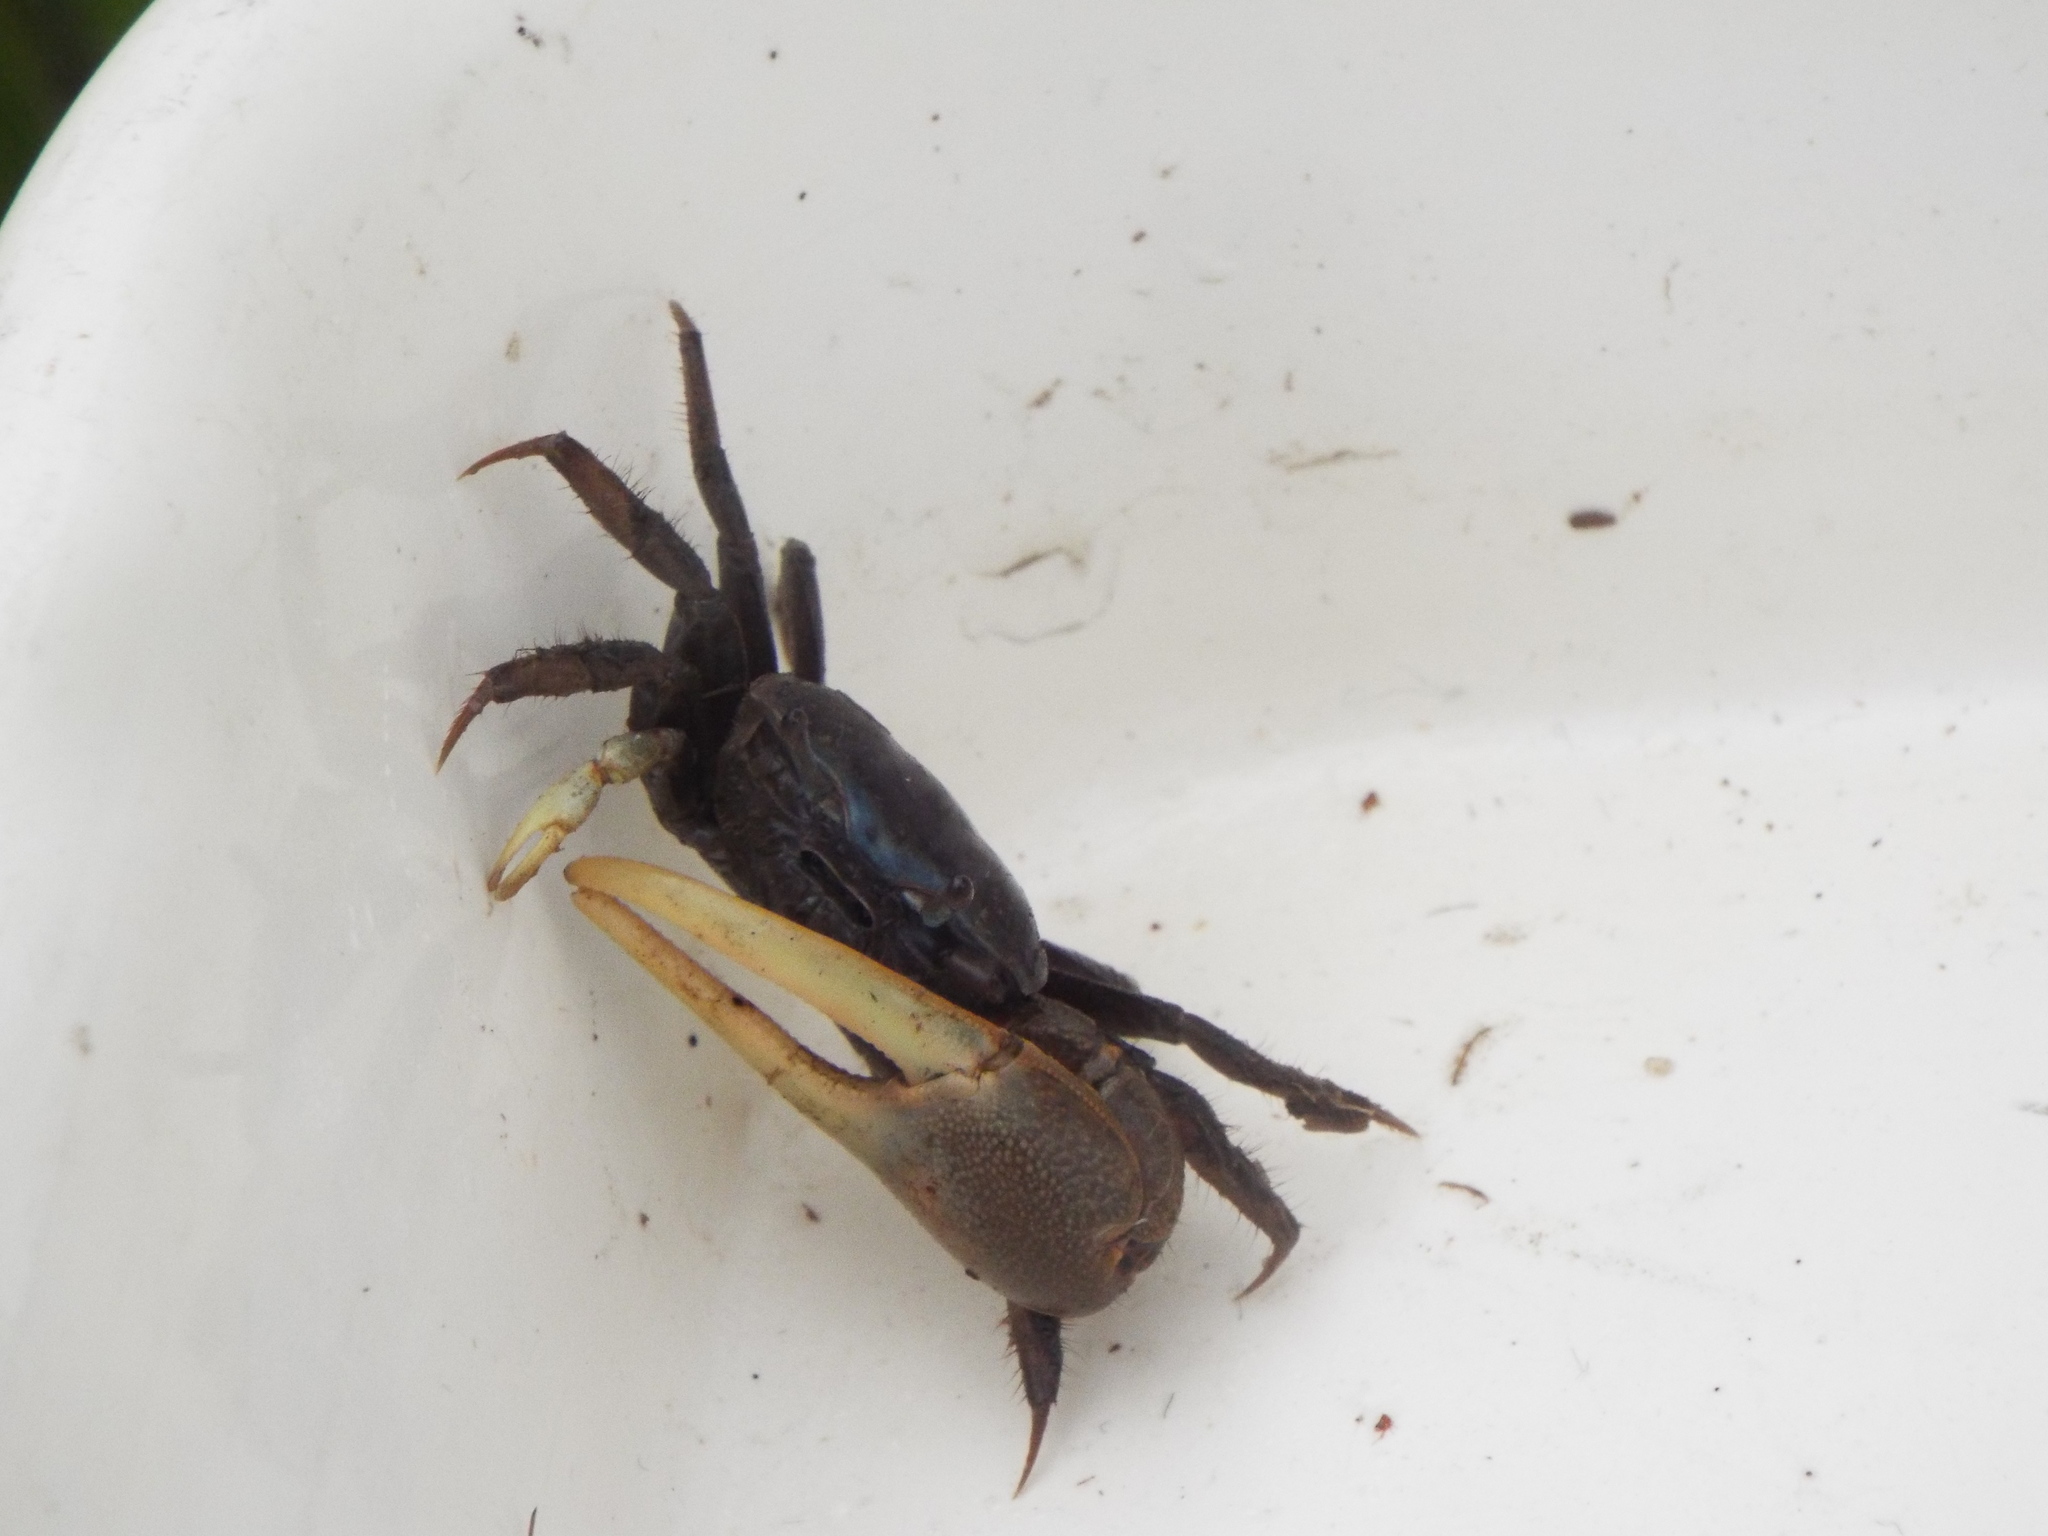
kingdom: Animalia
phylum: Arthropoda
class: Malacostraca
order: Decapoda
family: Ocypodidae
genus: Minuca
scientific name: Minuca pugnax
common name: Mud fiddler crab
